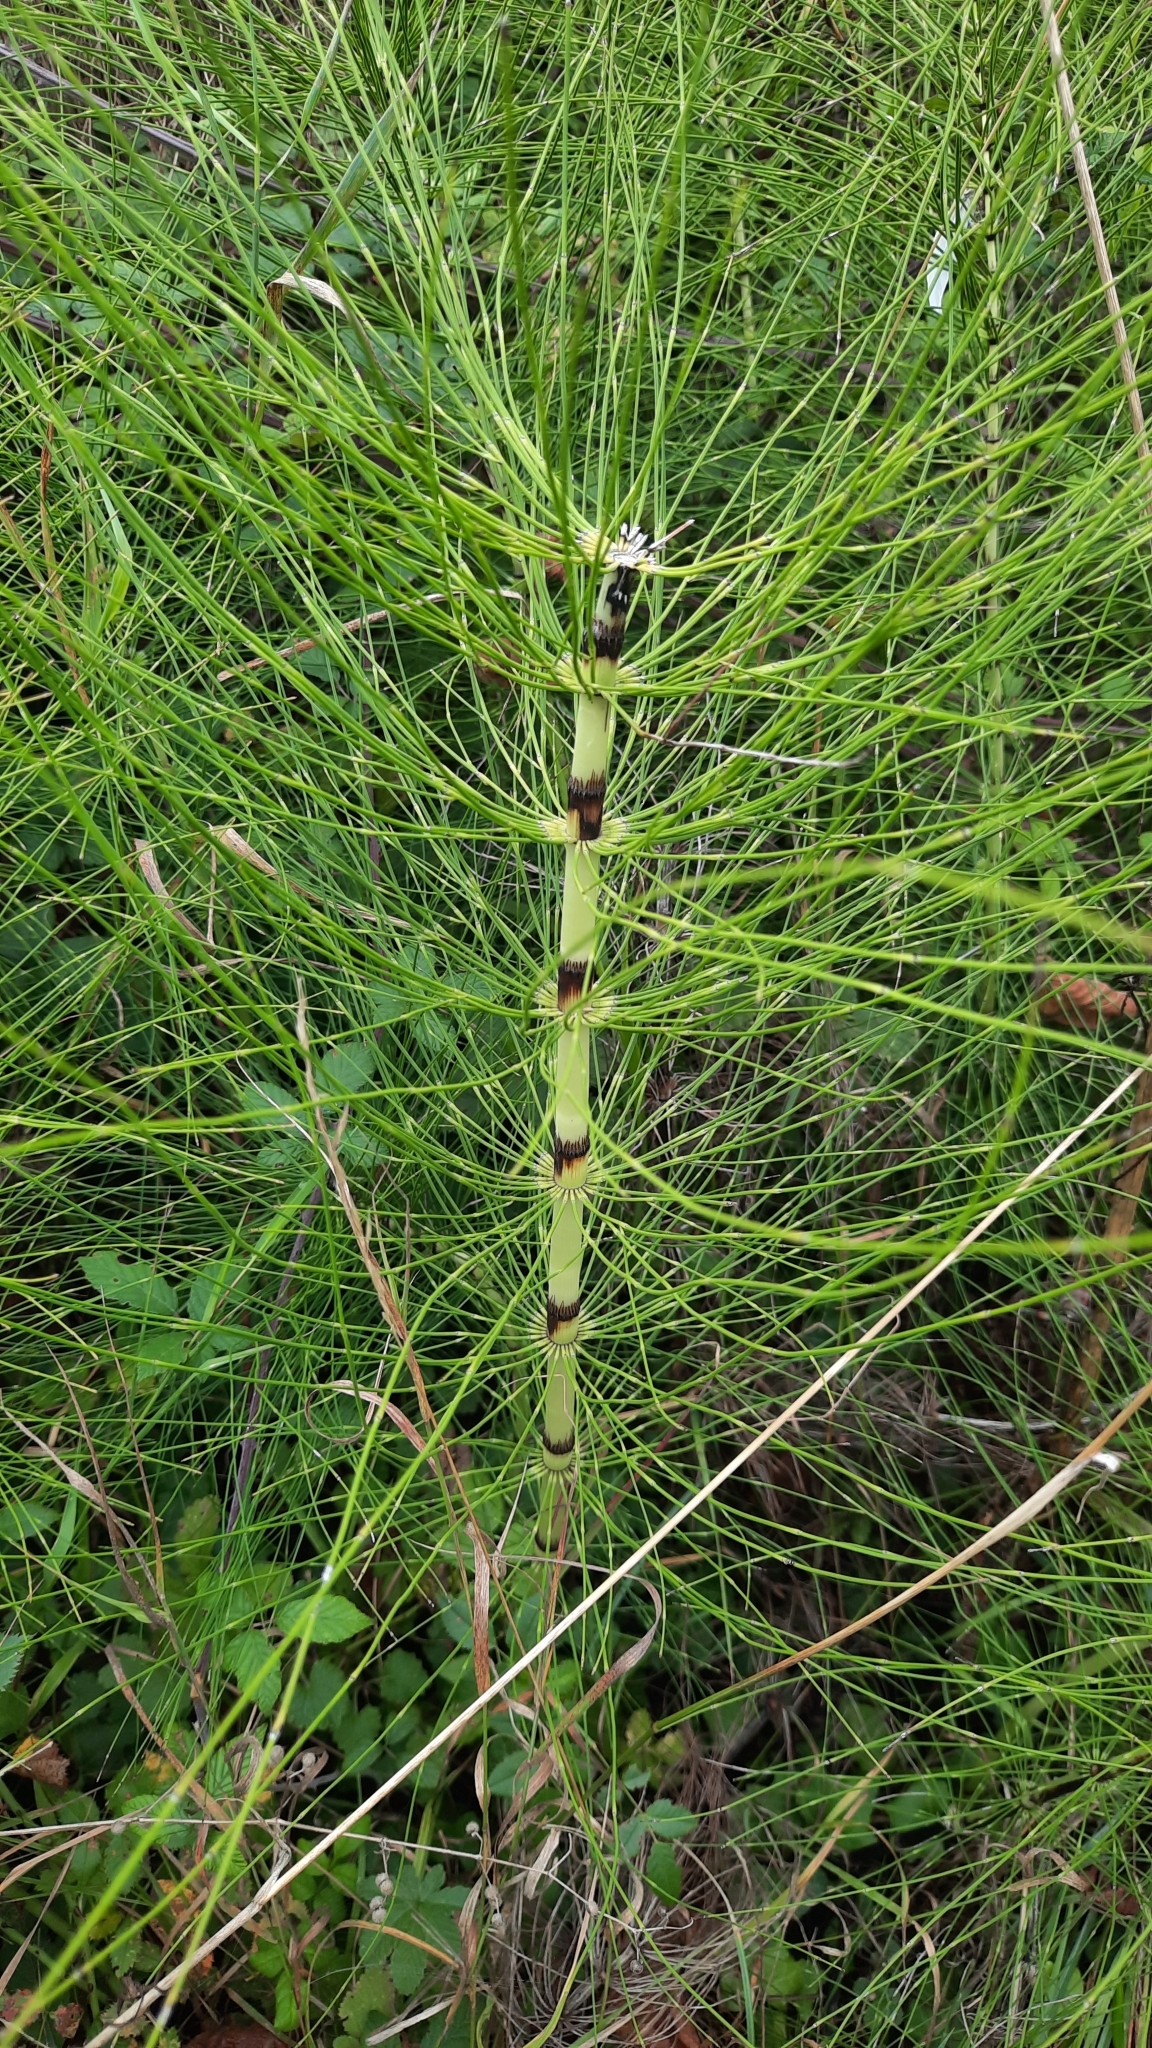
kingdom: Plantae
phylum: Tracheophyta
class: Polypodiopsida
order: Equisetales
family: Equisetaceae
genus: Equisetum
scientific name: Equisetum telmateia
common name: Great horsetail
